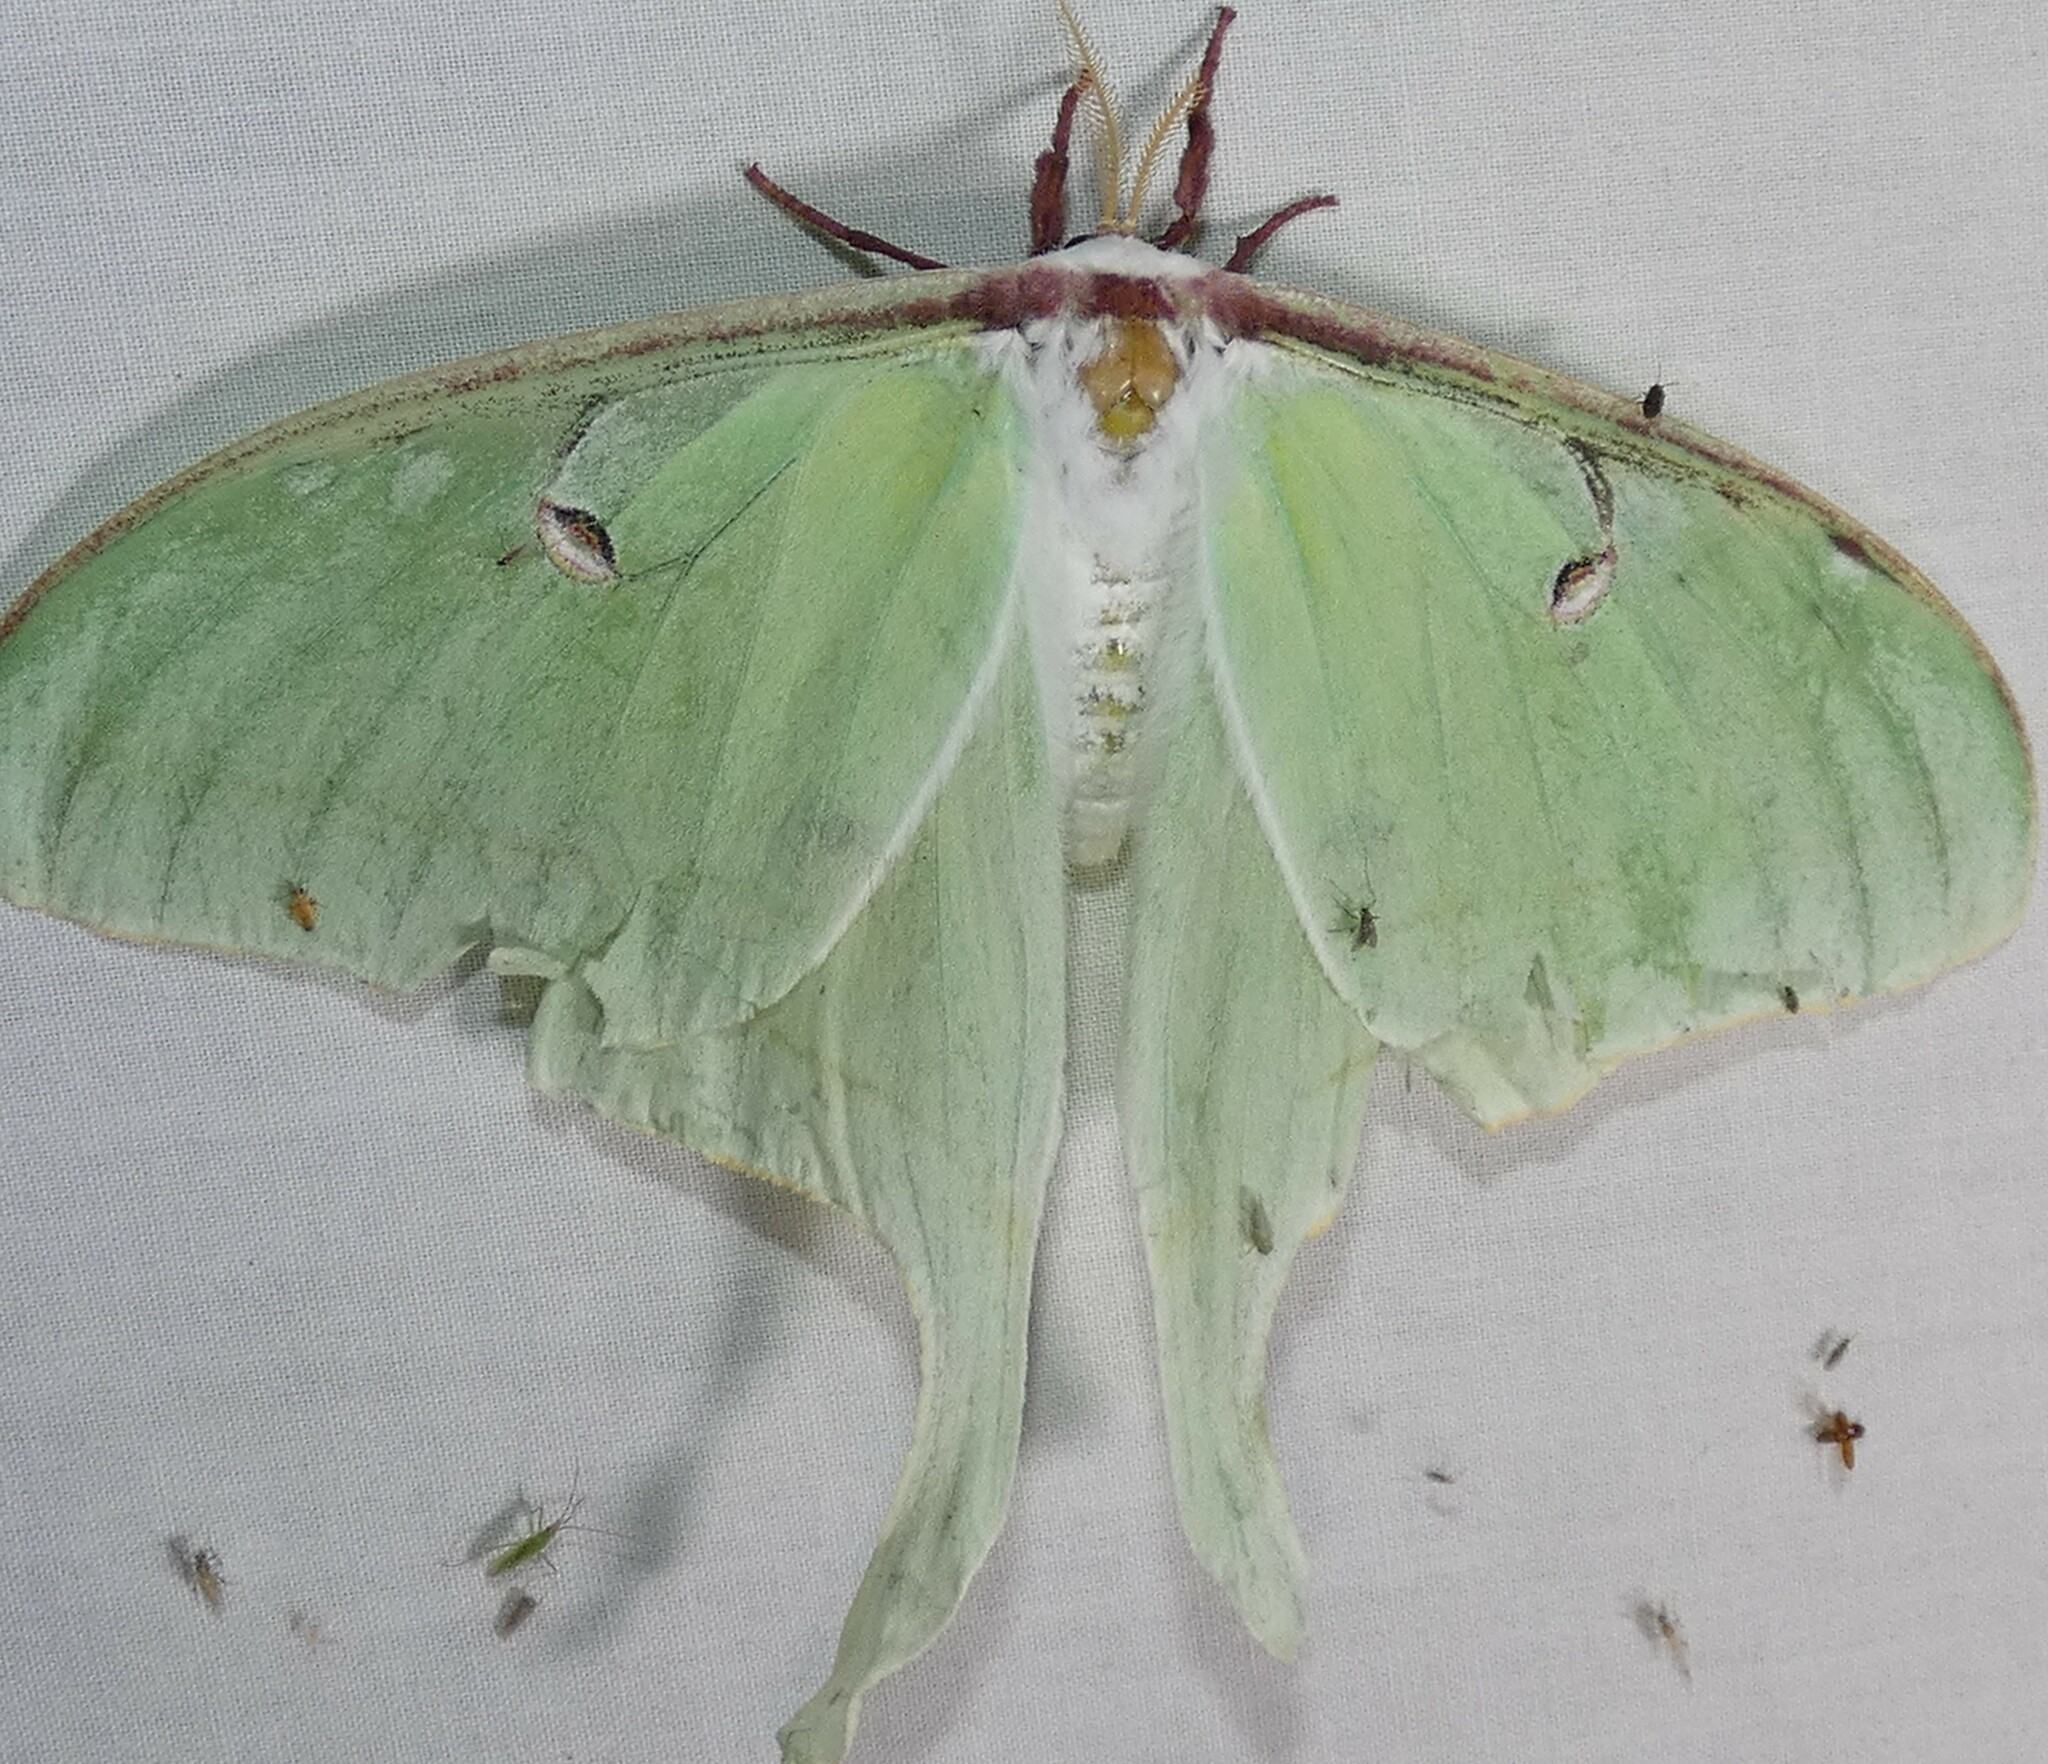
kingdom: Animalia
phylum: Arthropoda
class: Insecta
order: Lepidoptera
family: Saturniidae
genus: Actias
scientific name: Actias luna
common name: Luna moth
